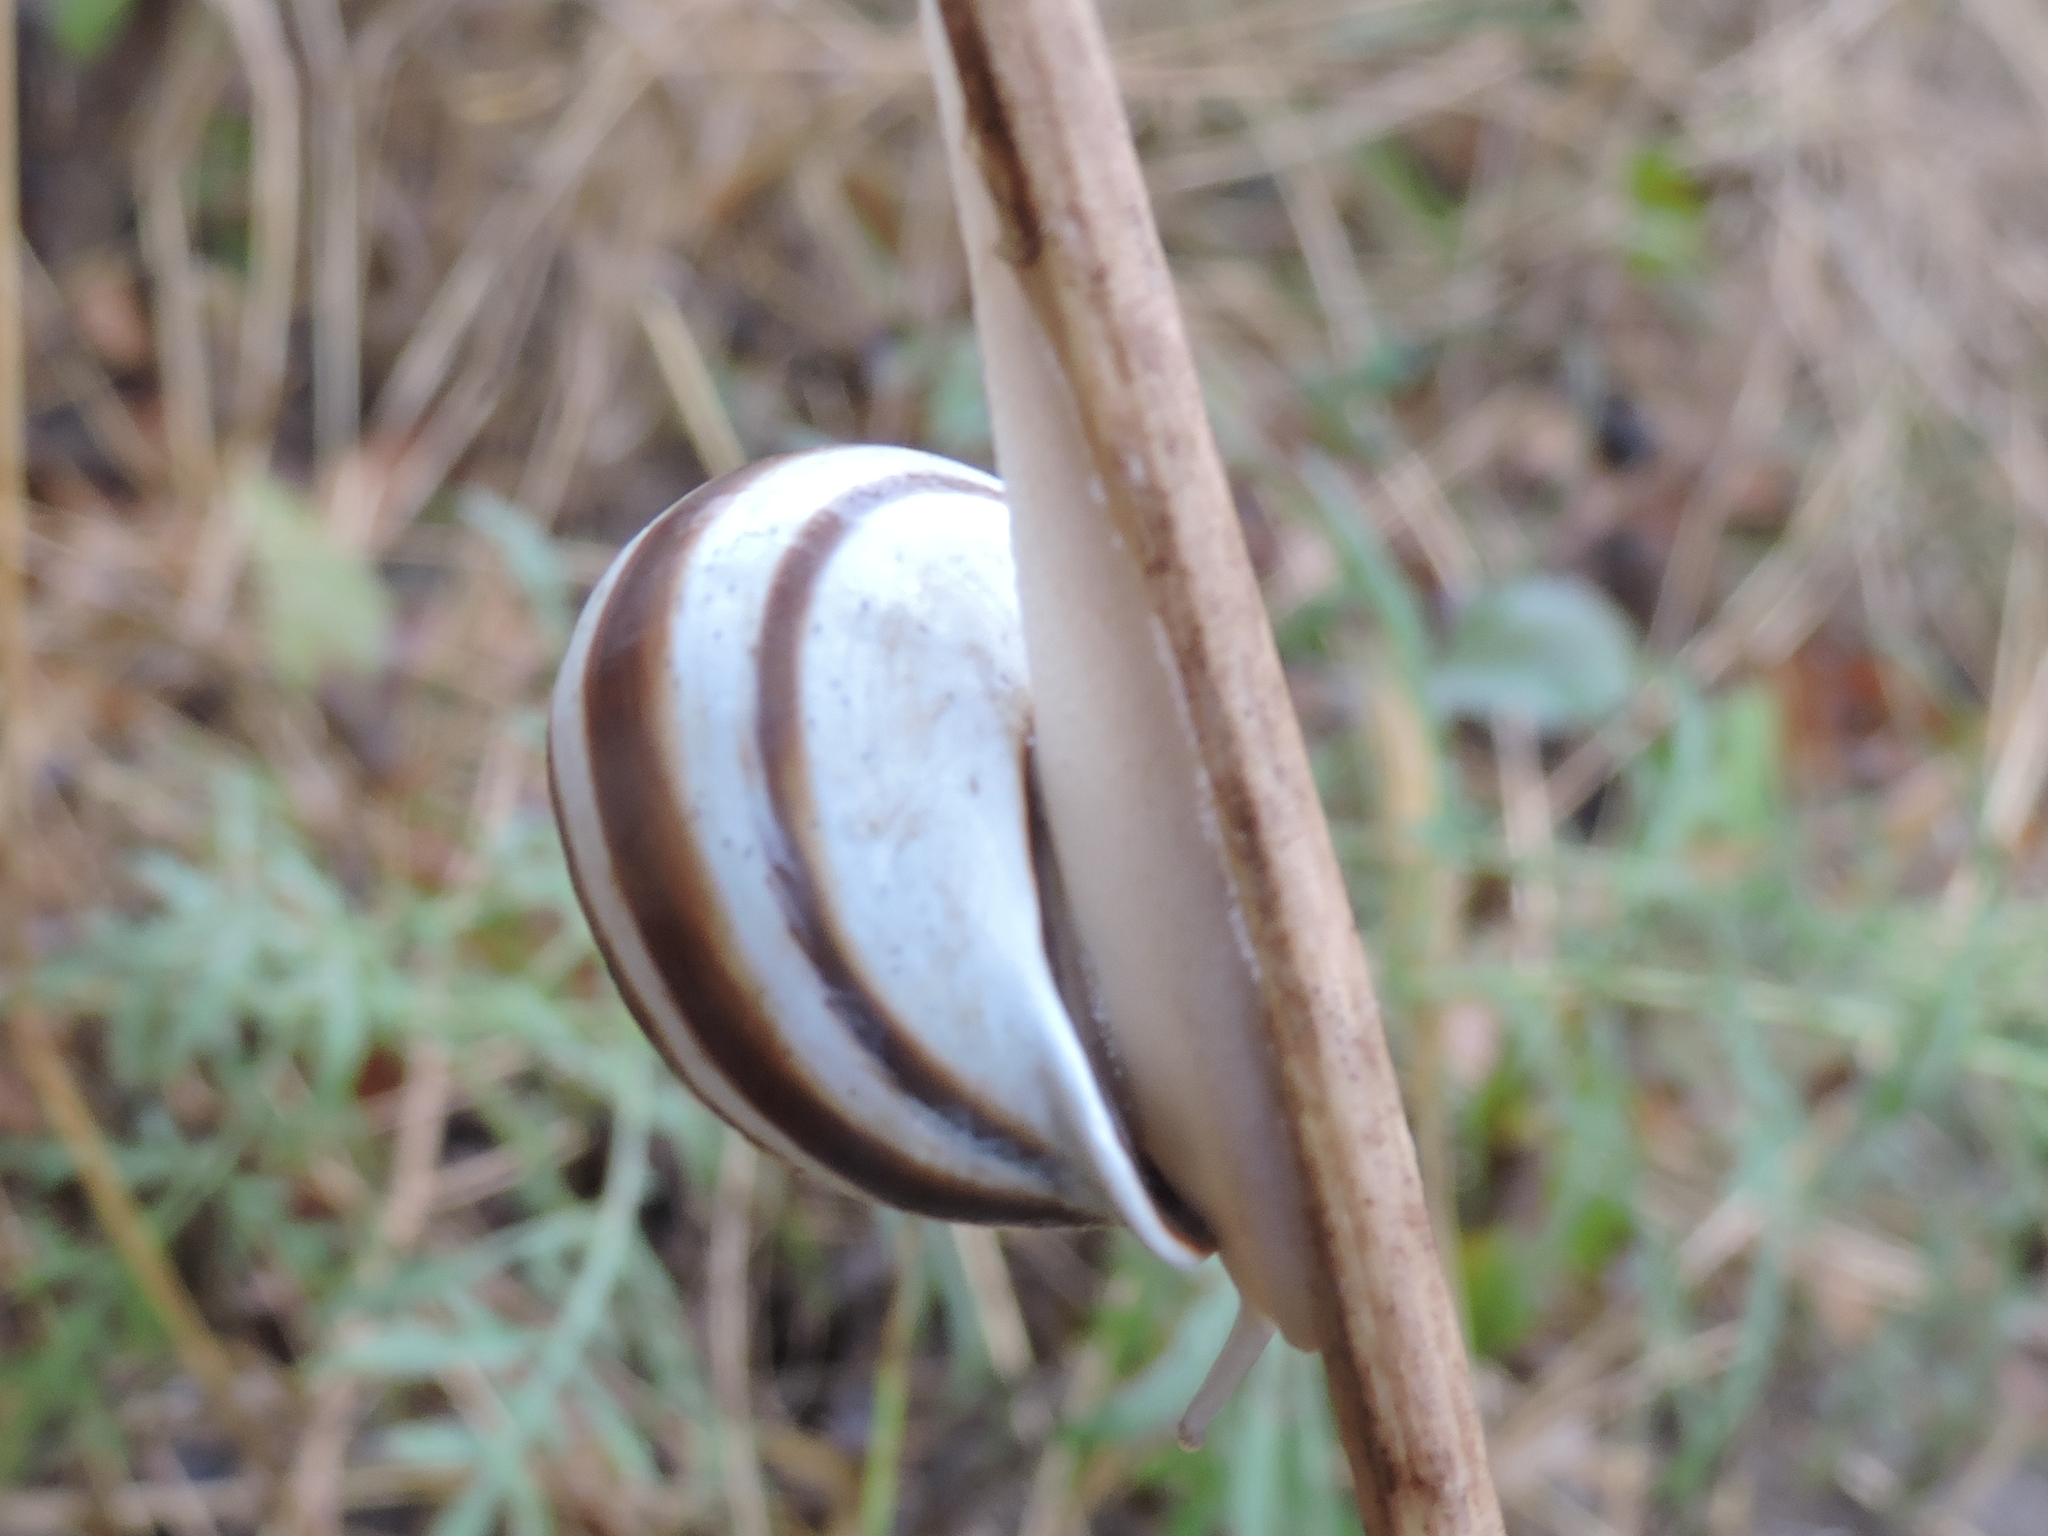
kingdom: Animalia
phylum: Mollusca
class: Gastropoda
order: Stylommatophora
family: Helicidae
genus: Otala
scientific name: Otala lactea
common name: Milk snail
